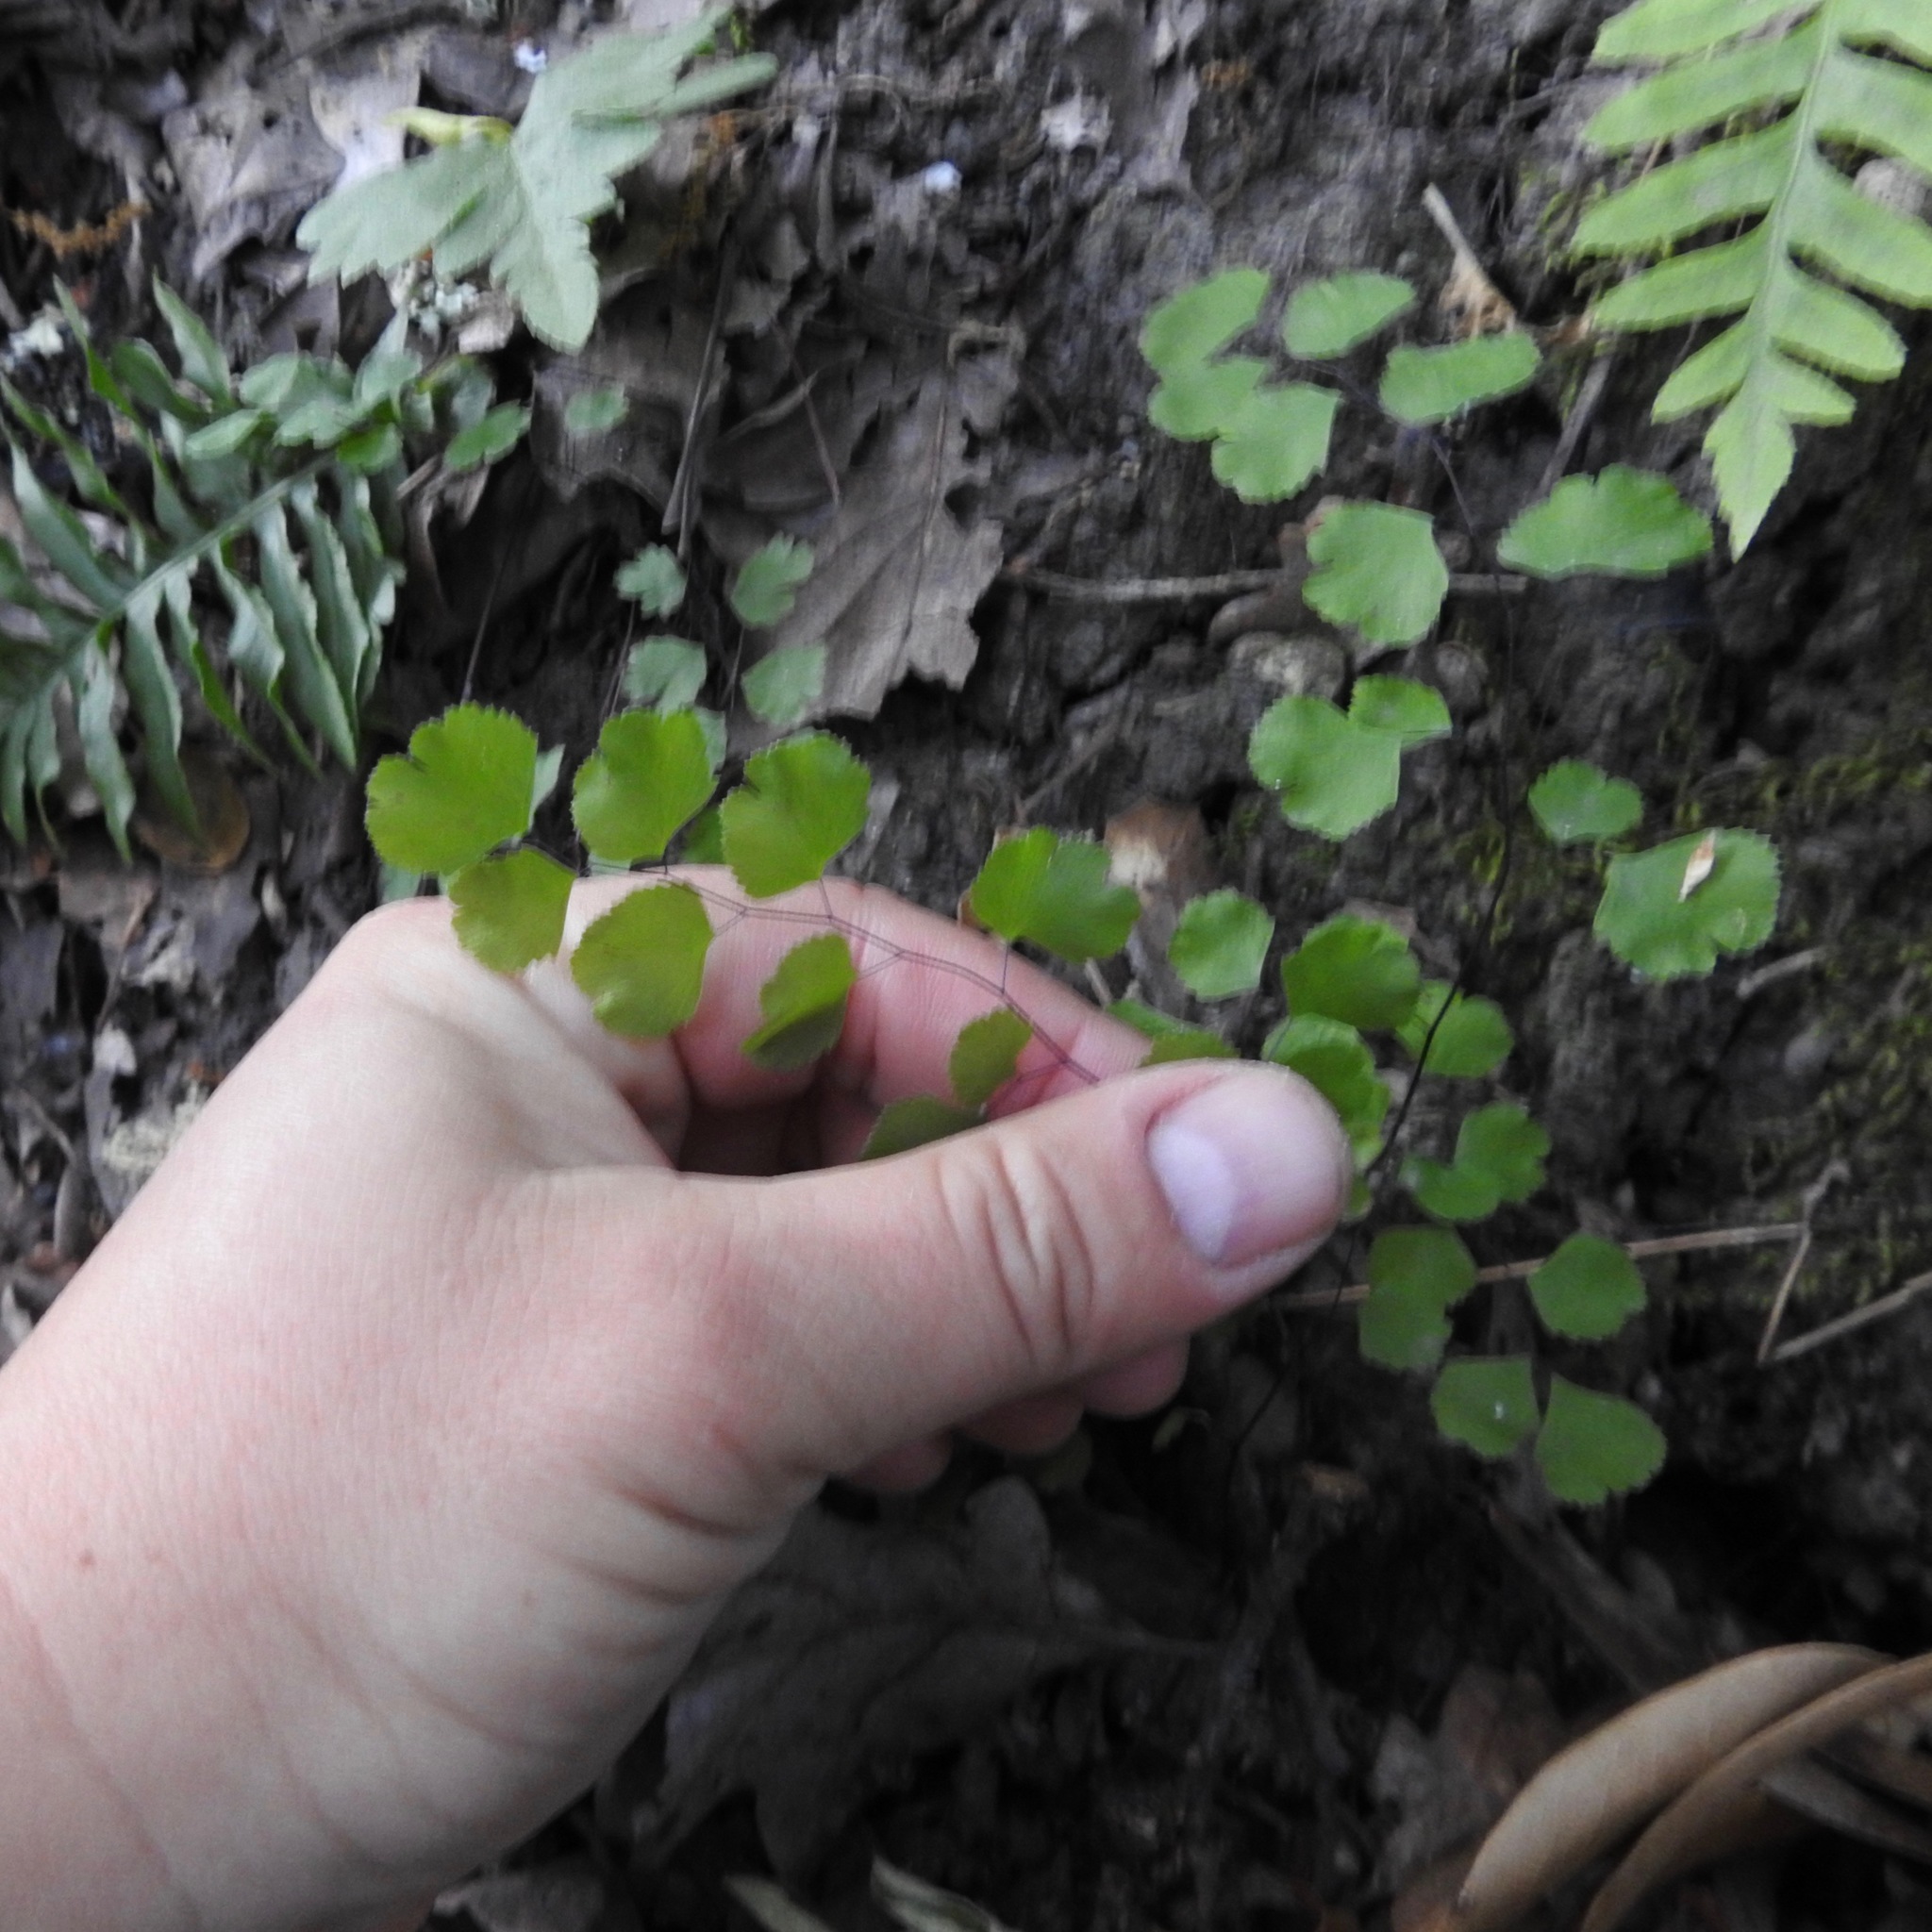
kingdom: Plantae
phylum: Tracheophyta
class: Polypodiopsida
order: Polypodiales
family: Pteridaceae
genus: Adiantum
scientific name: Adiantum jordanii
